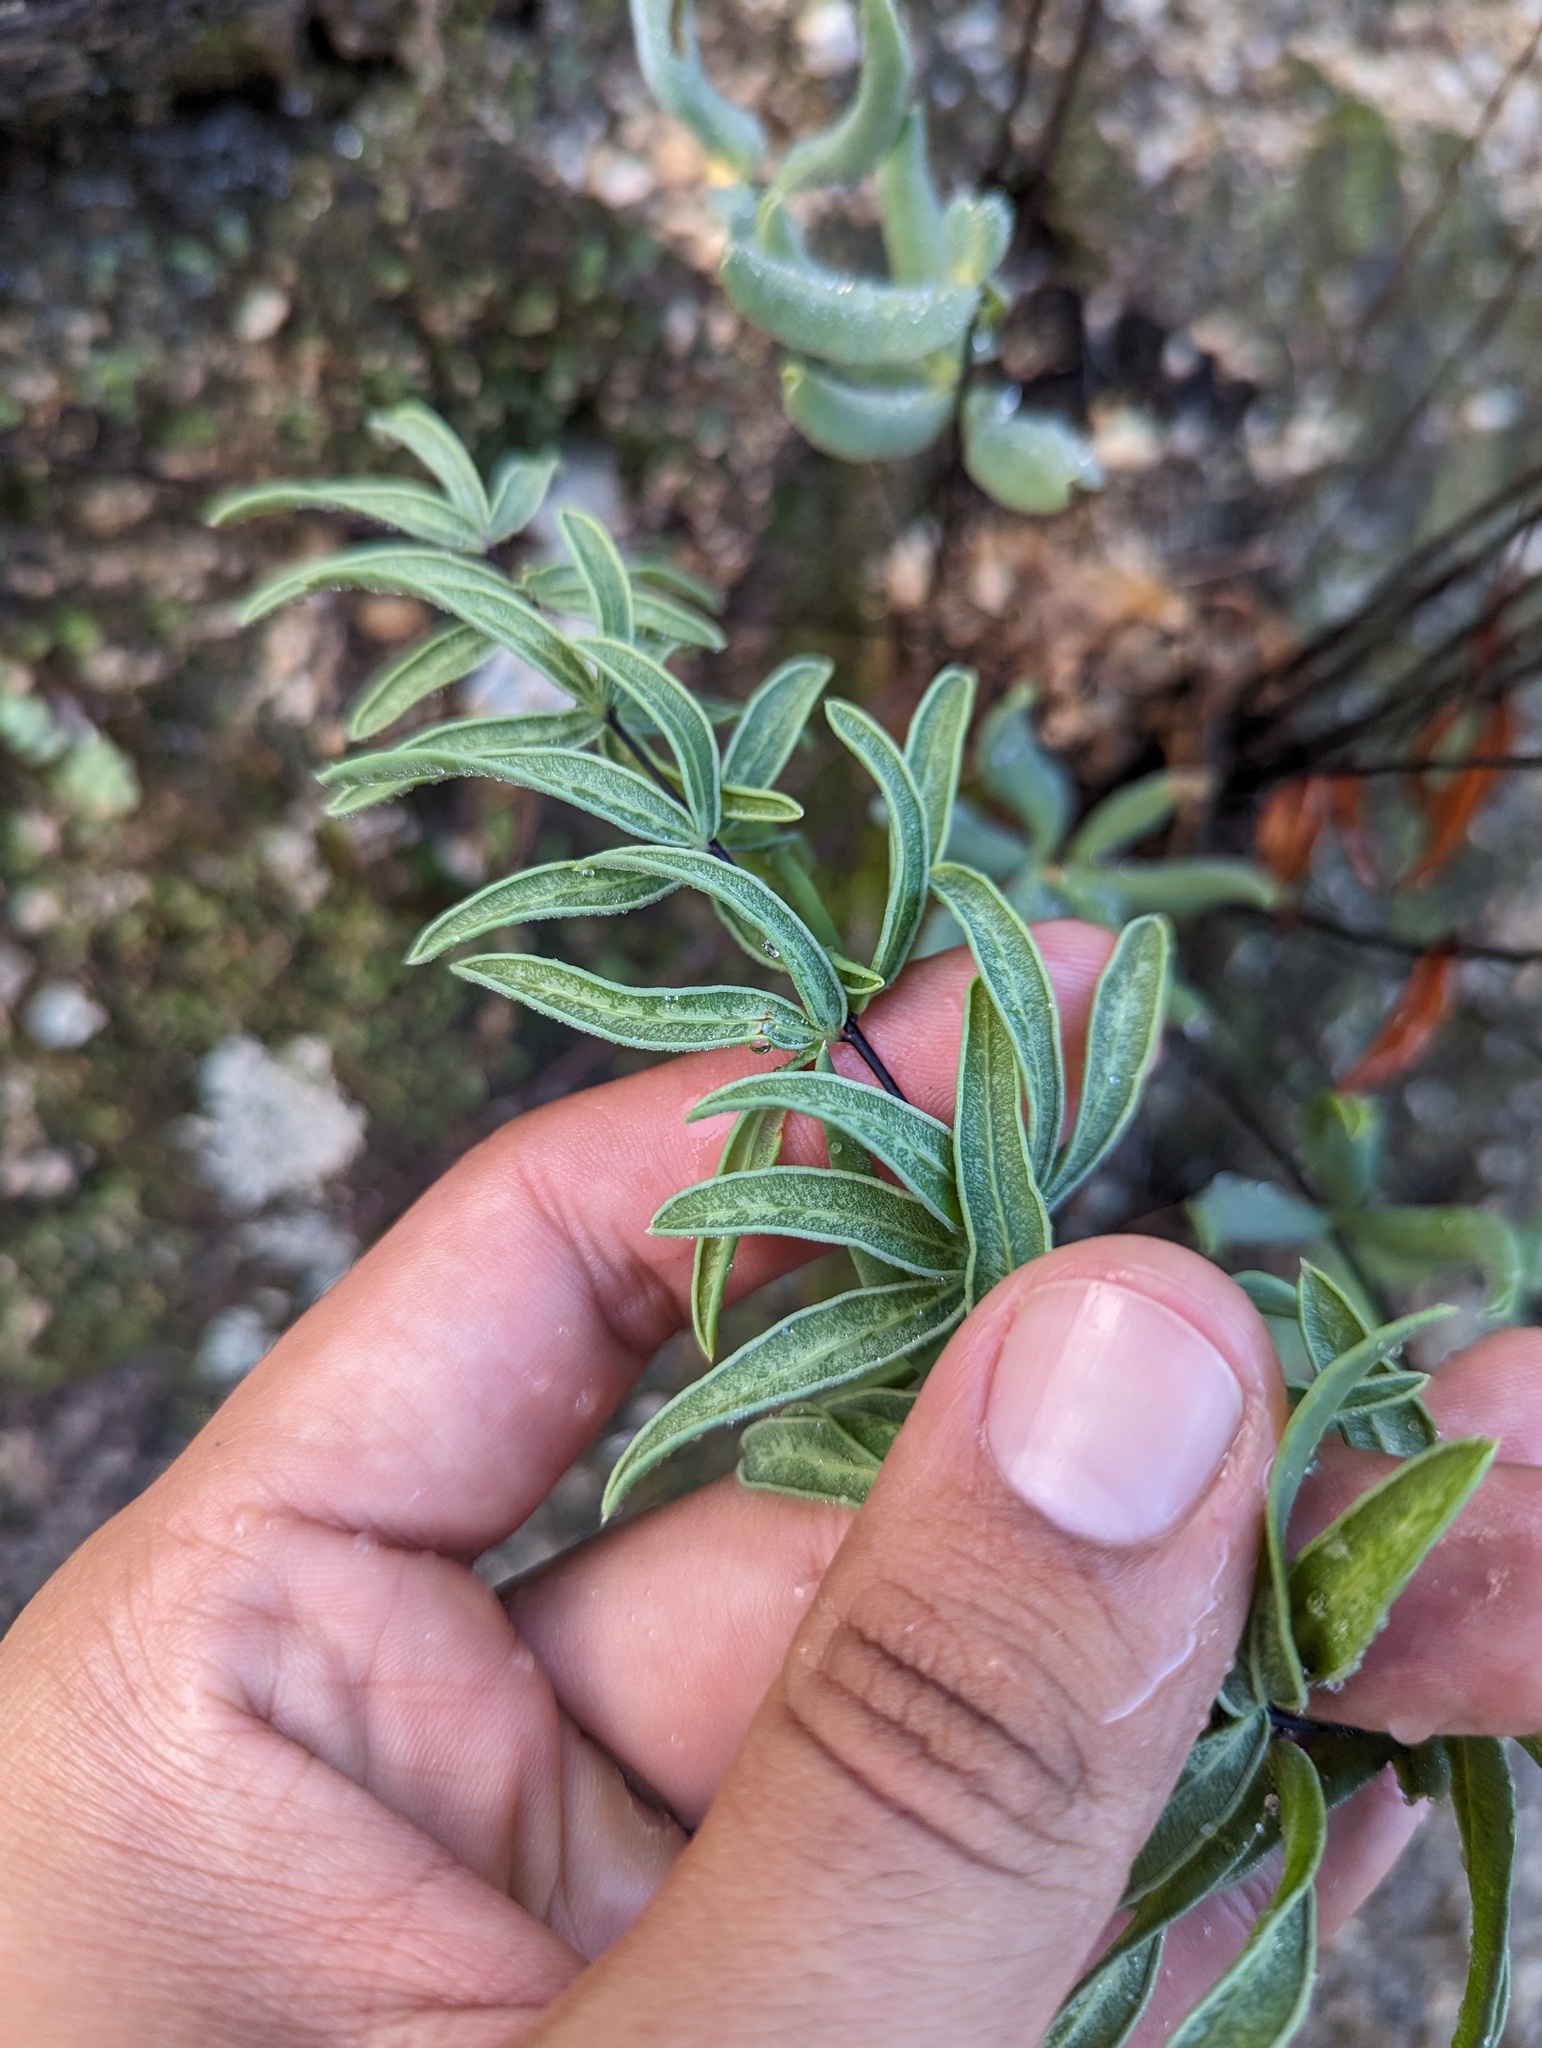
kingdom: Plantae
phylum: Tracheophyta
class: Polypodiopsida
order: Polypodiales
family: Pteridaceae
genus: Pellaea
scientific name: Pellaea ternifolia
